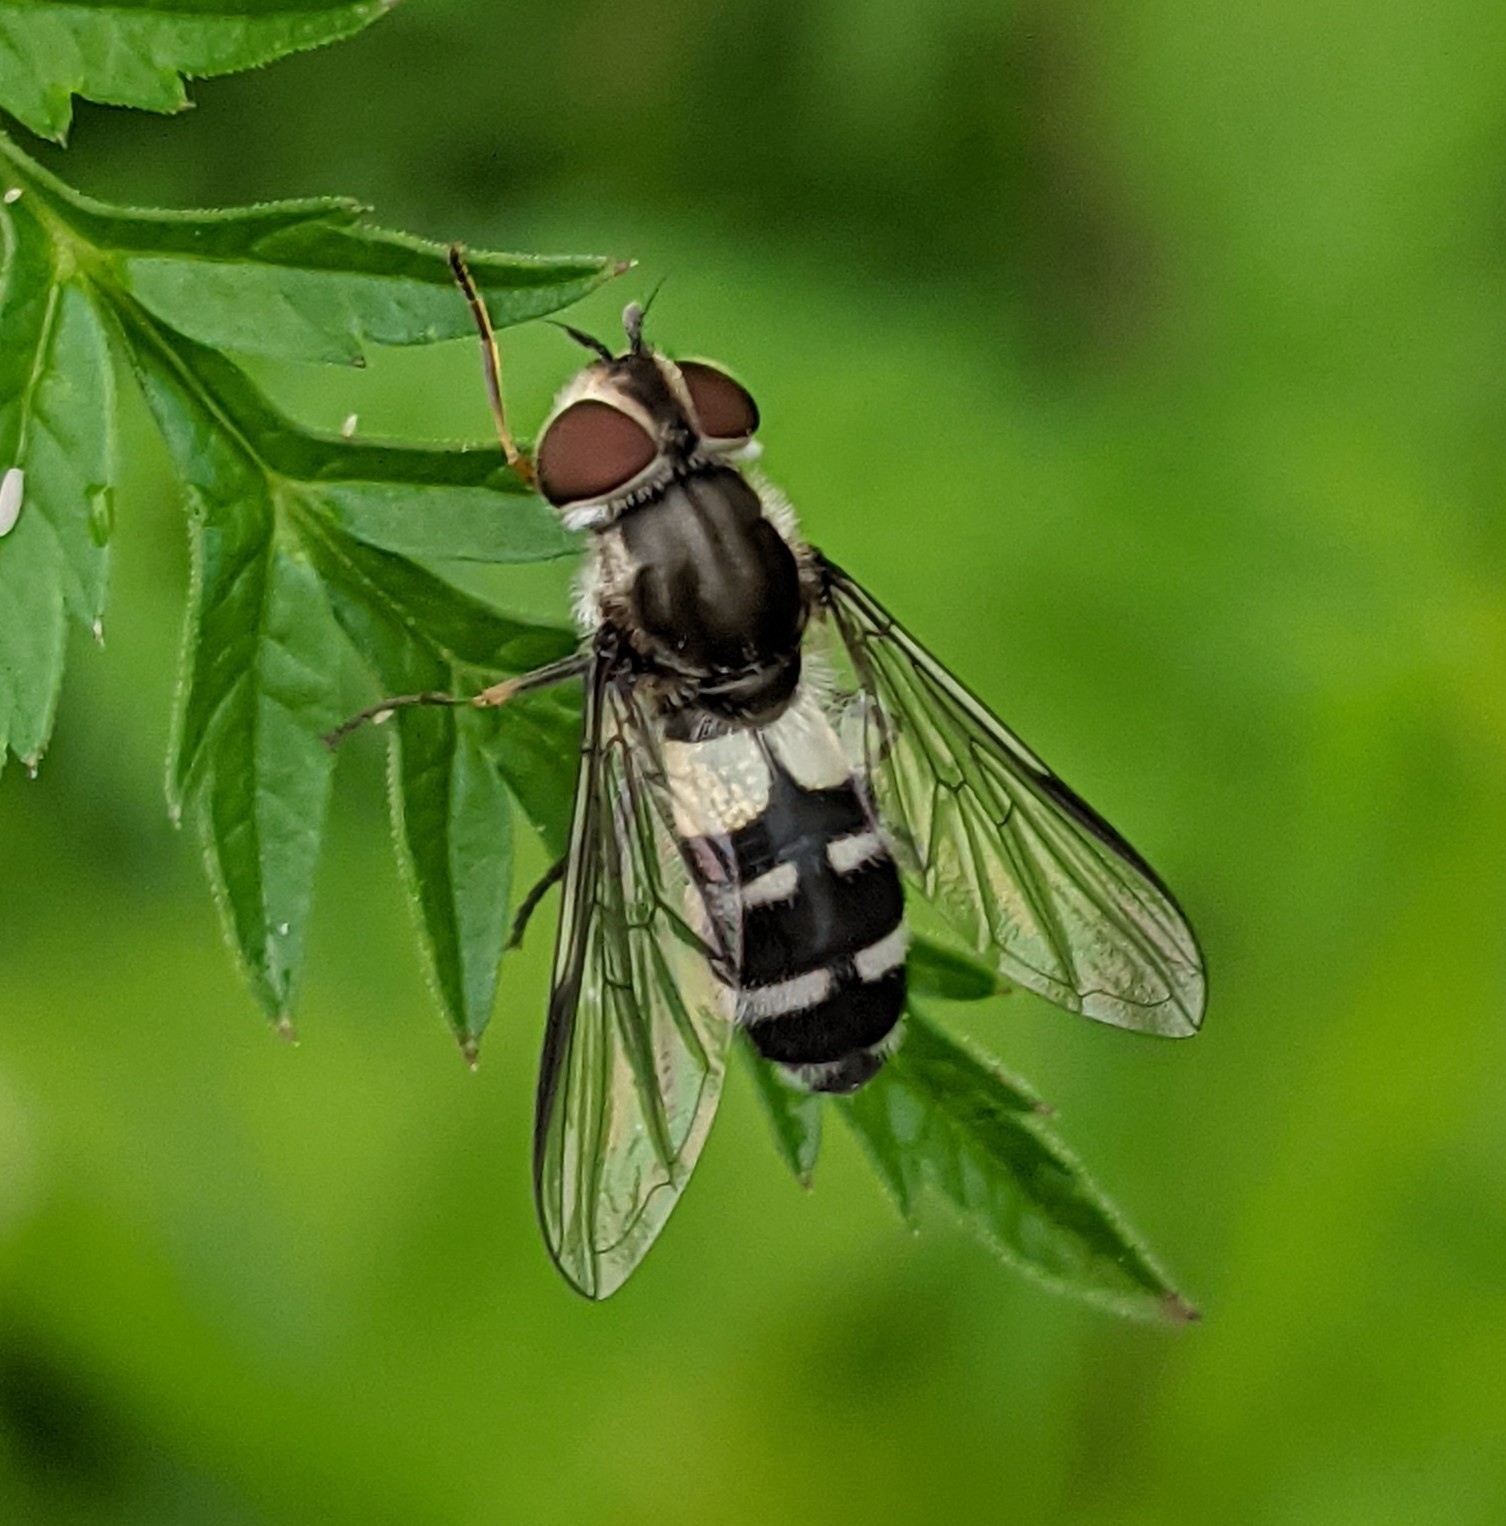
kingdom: Animalia
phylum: Arthropoda
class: Insecta
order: Diptera
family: Syrphidae
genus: Leucozona
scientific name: Leucozona laternaria
